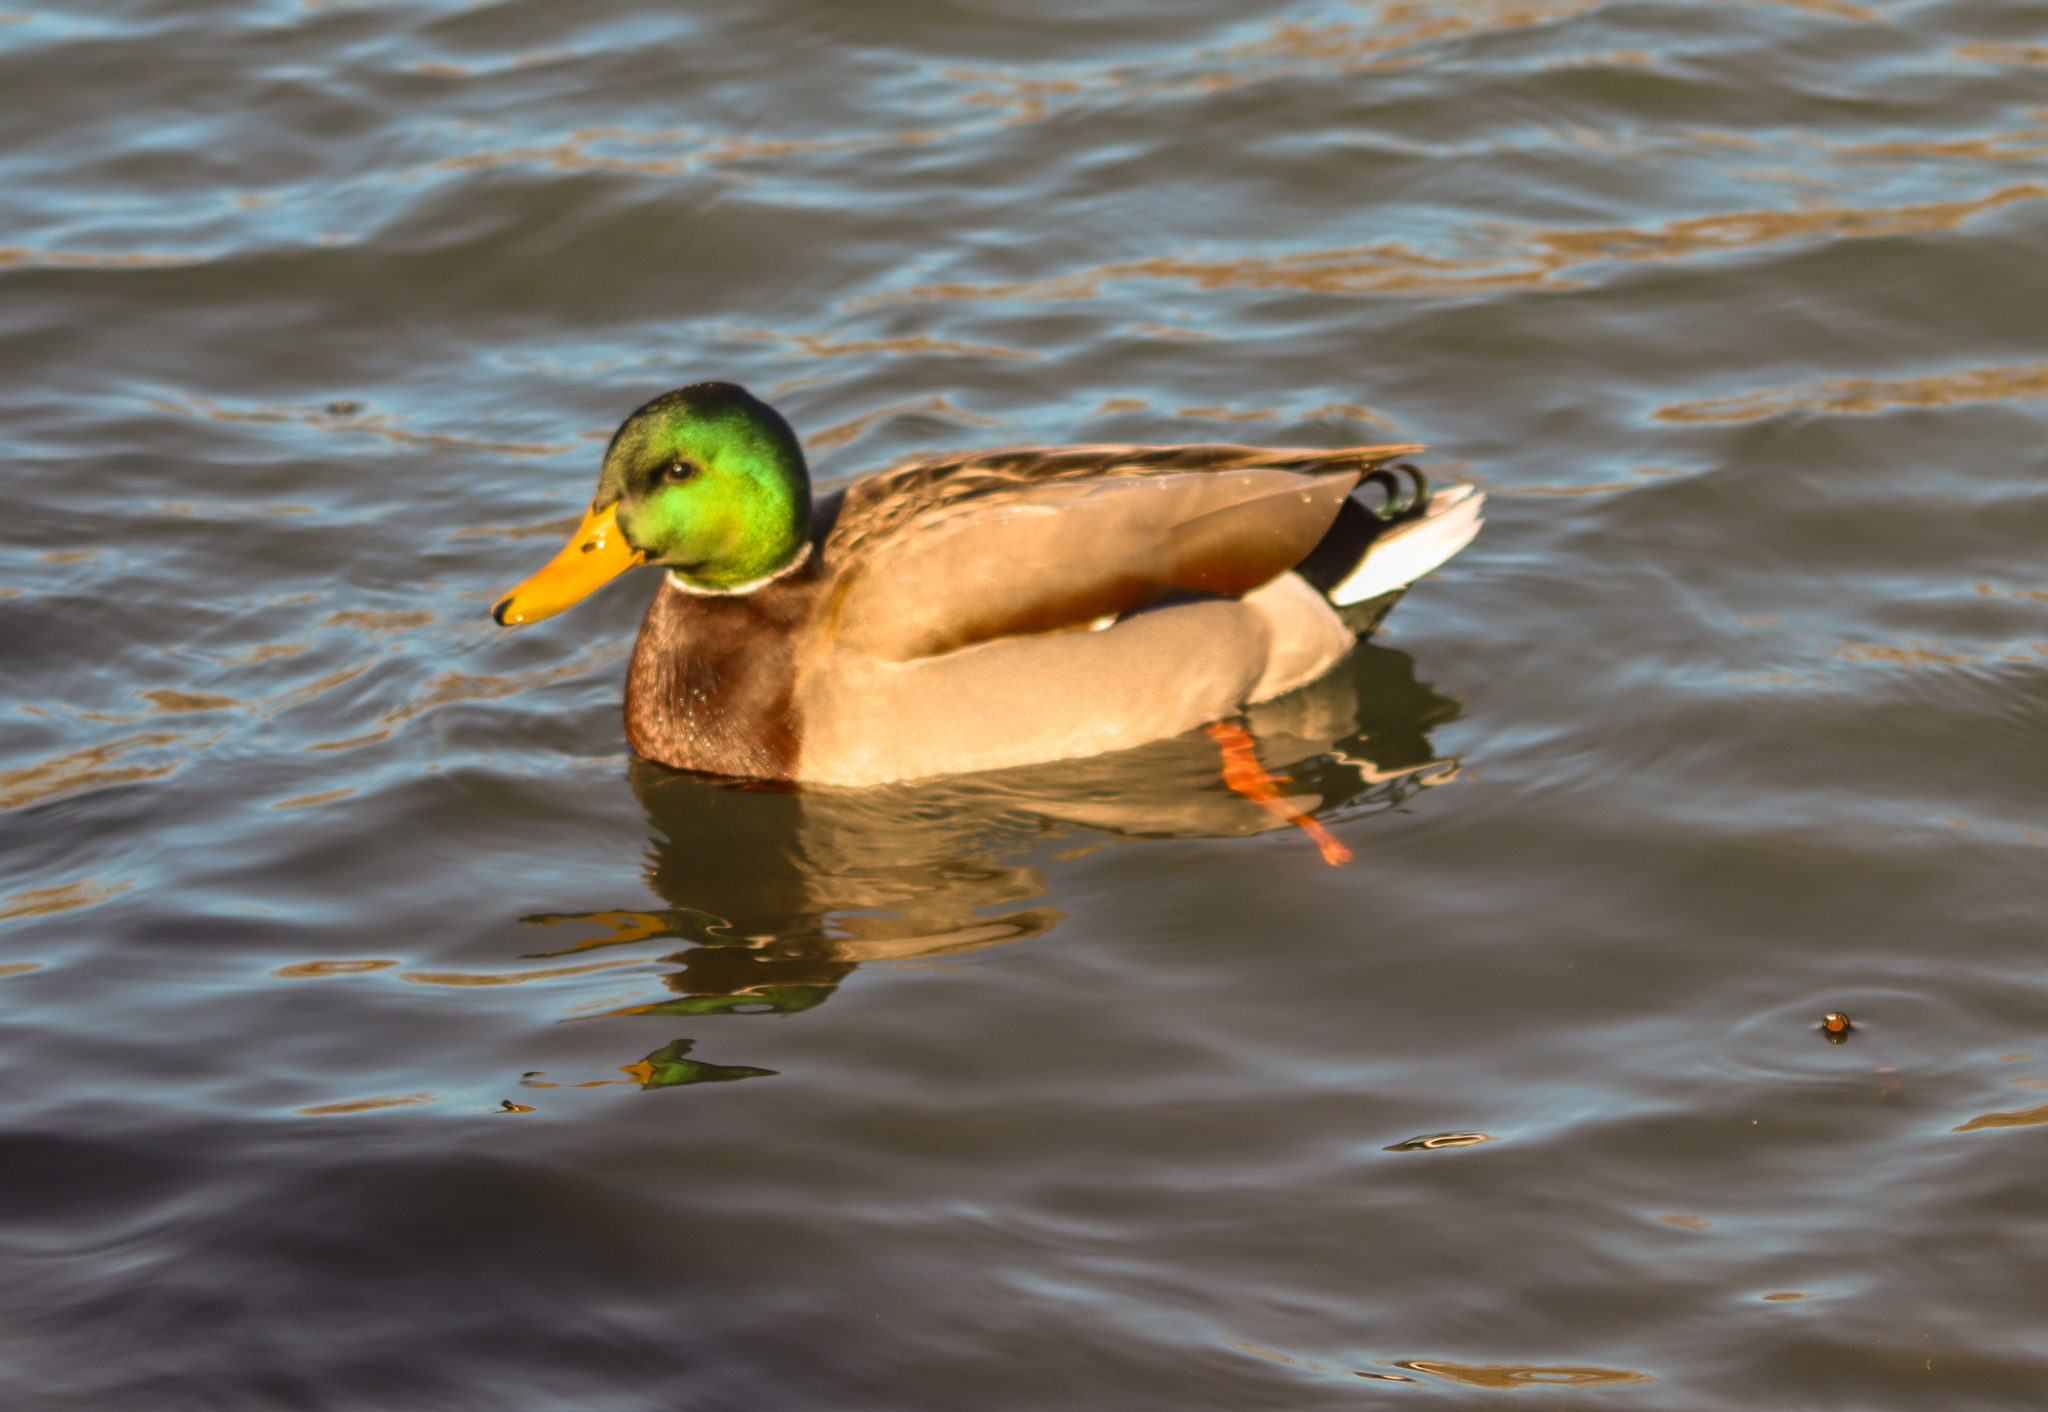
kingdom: Animalia
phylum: Chordata
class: Aves
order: Anseriformes
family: Anatidae
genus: Anas
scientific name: Anas platyrhynchos
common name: Mallard
